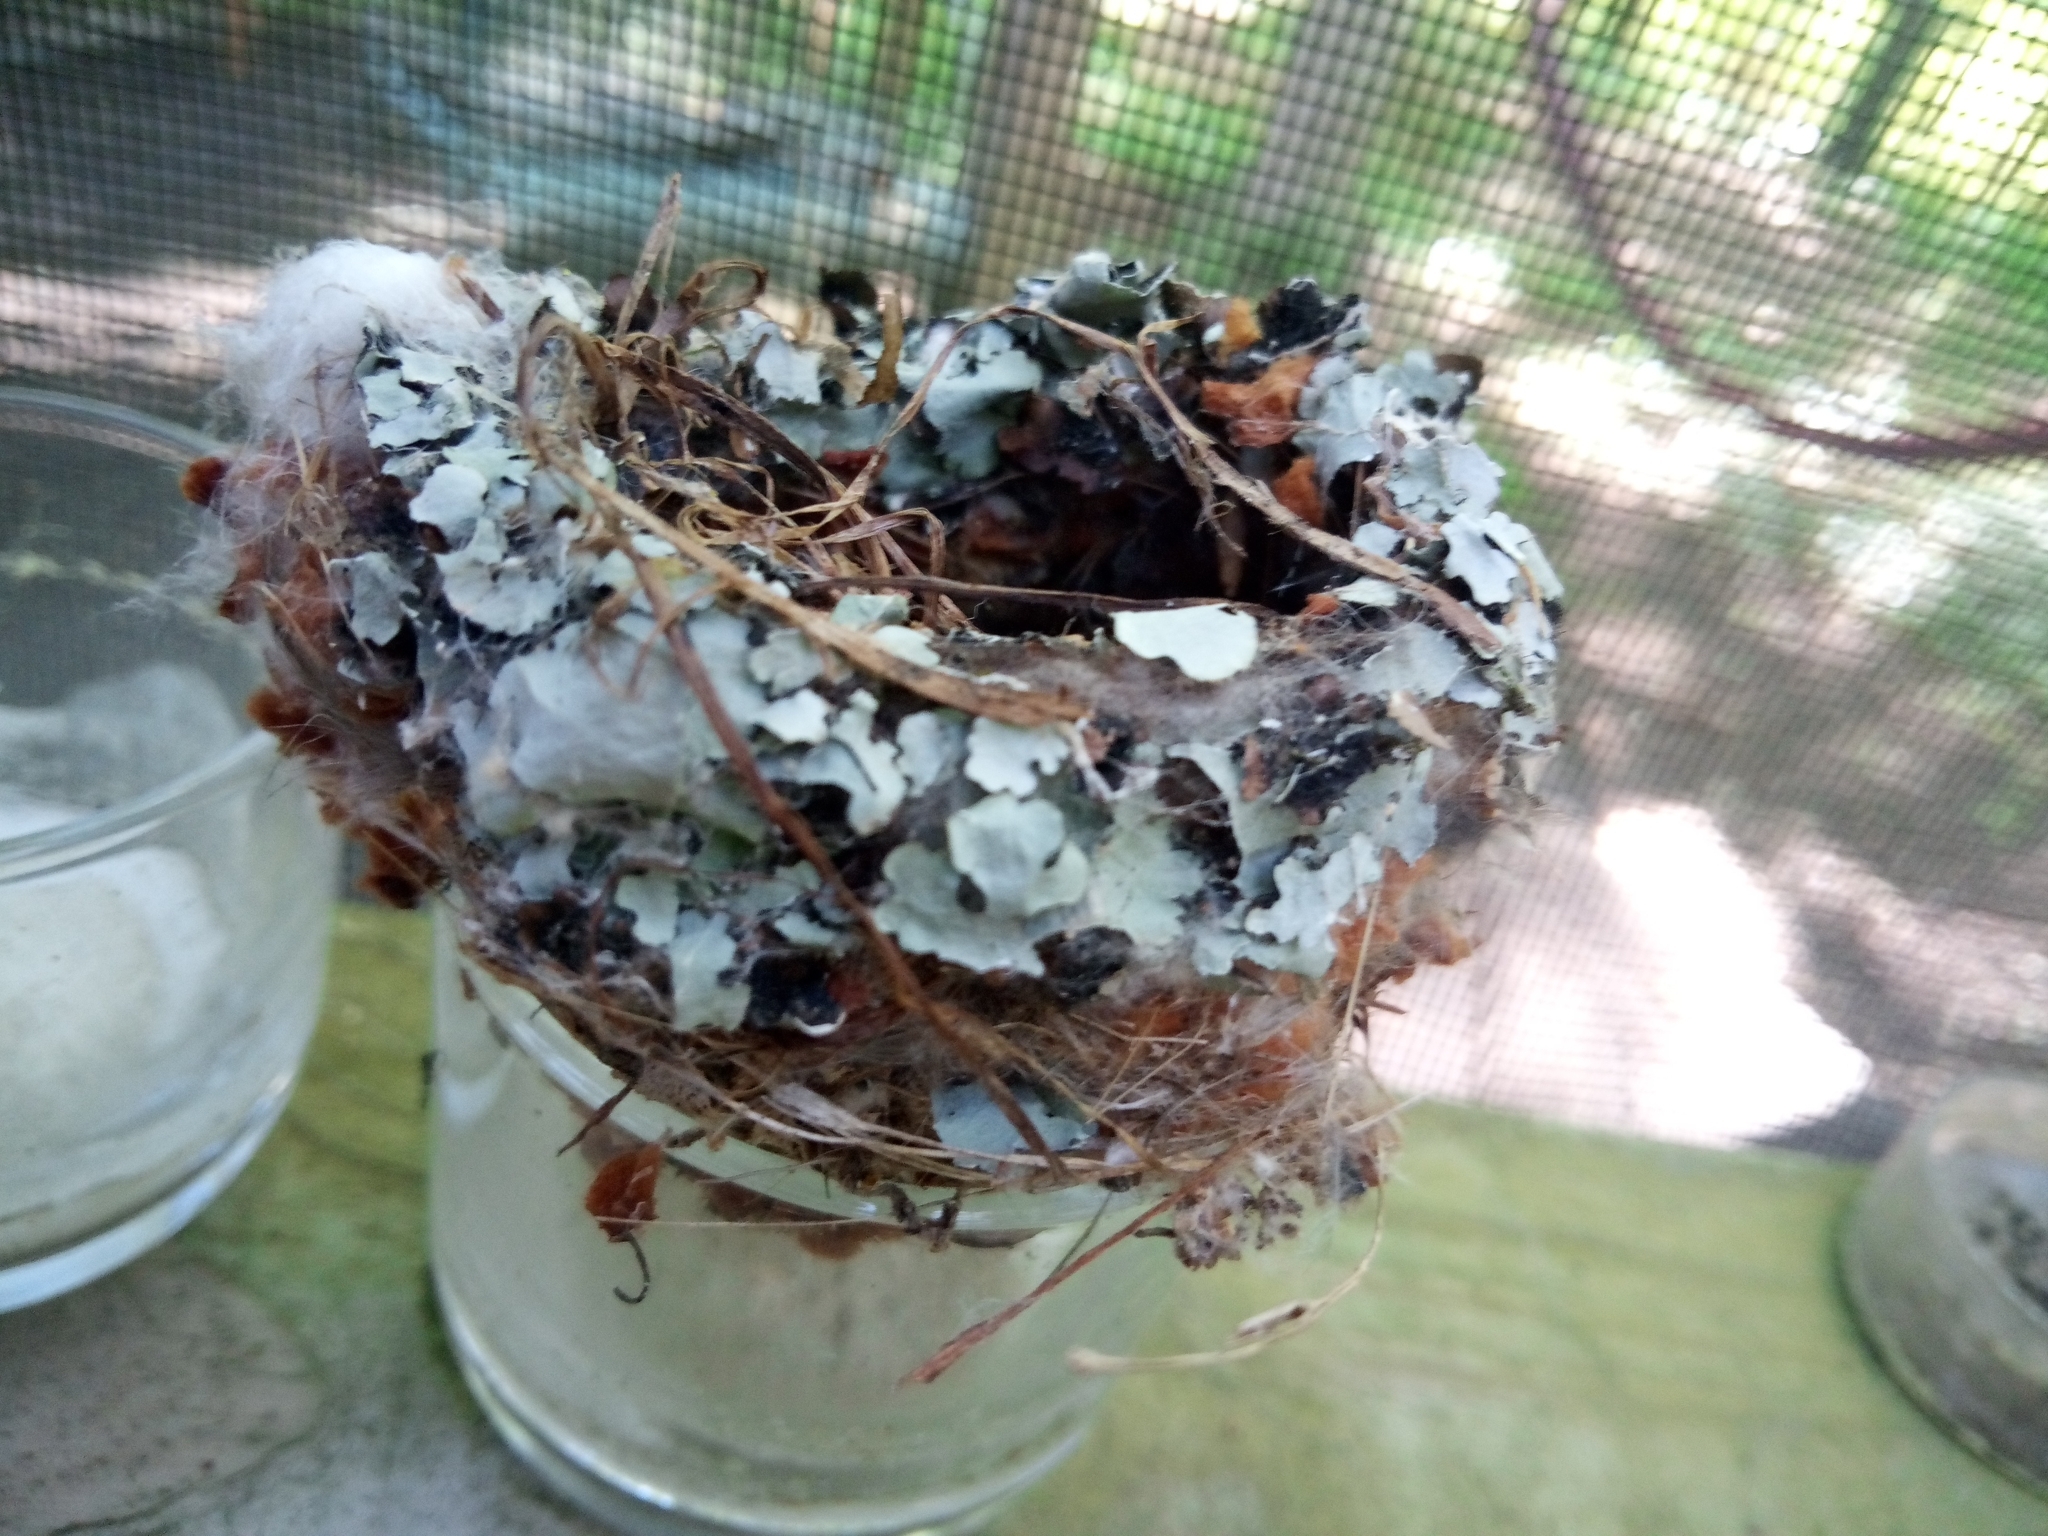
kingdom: Animalia
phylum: Chordata
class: Aves
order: Passeriformes
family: Polioptilidae
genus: Polioptila
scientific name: Polioptila caerulea
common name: Blue-gray gnatcatcher
